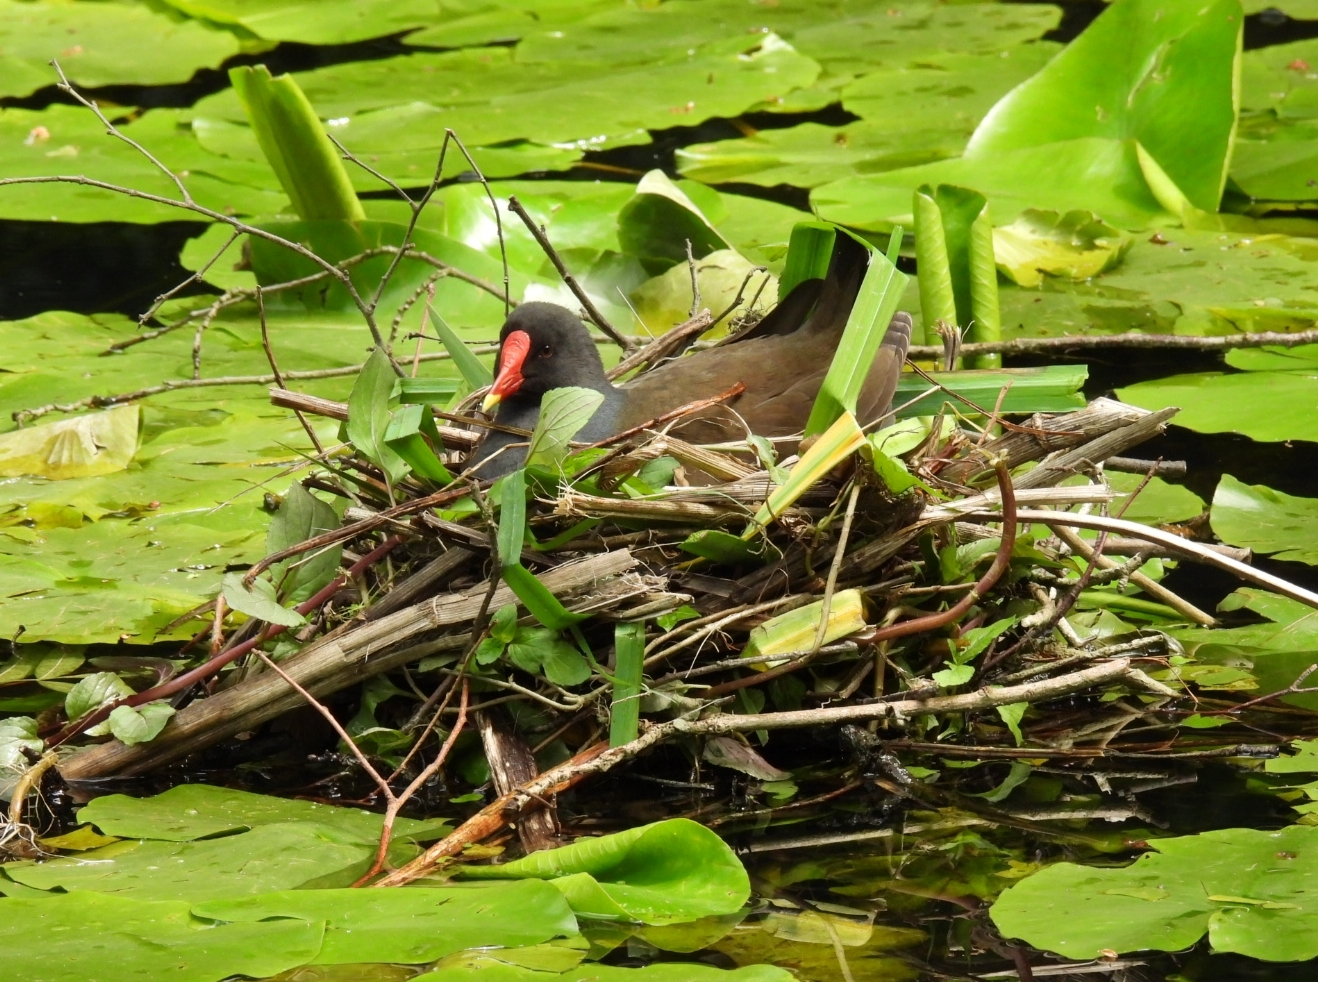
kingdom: Animalia
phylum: Chordata
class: Aves
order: Gruiformes
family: Rallidae
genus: Gallinula
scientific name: Gallinula chloropus
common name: Common moorhen
